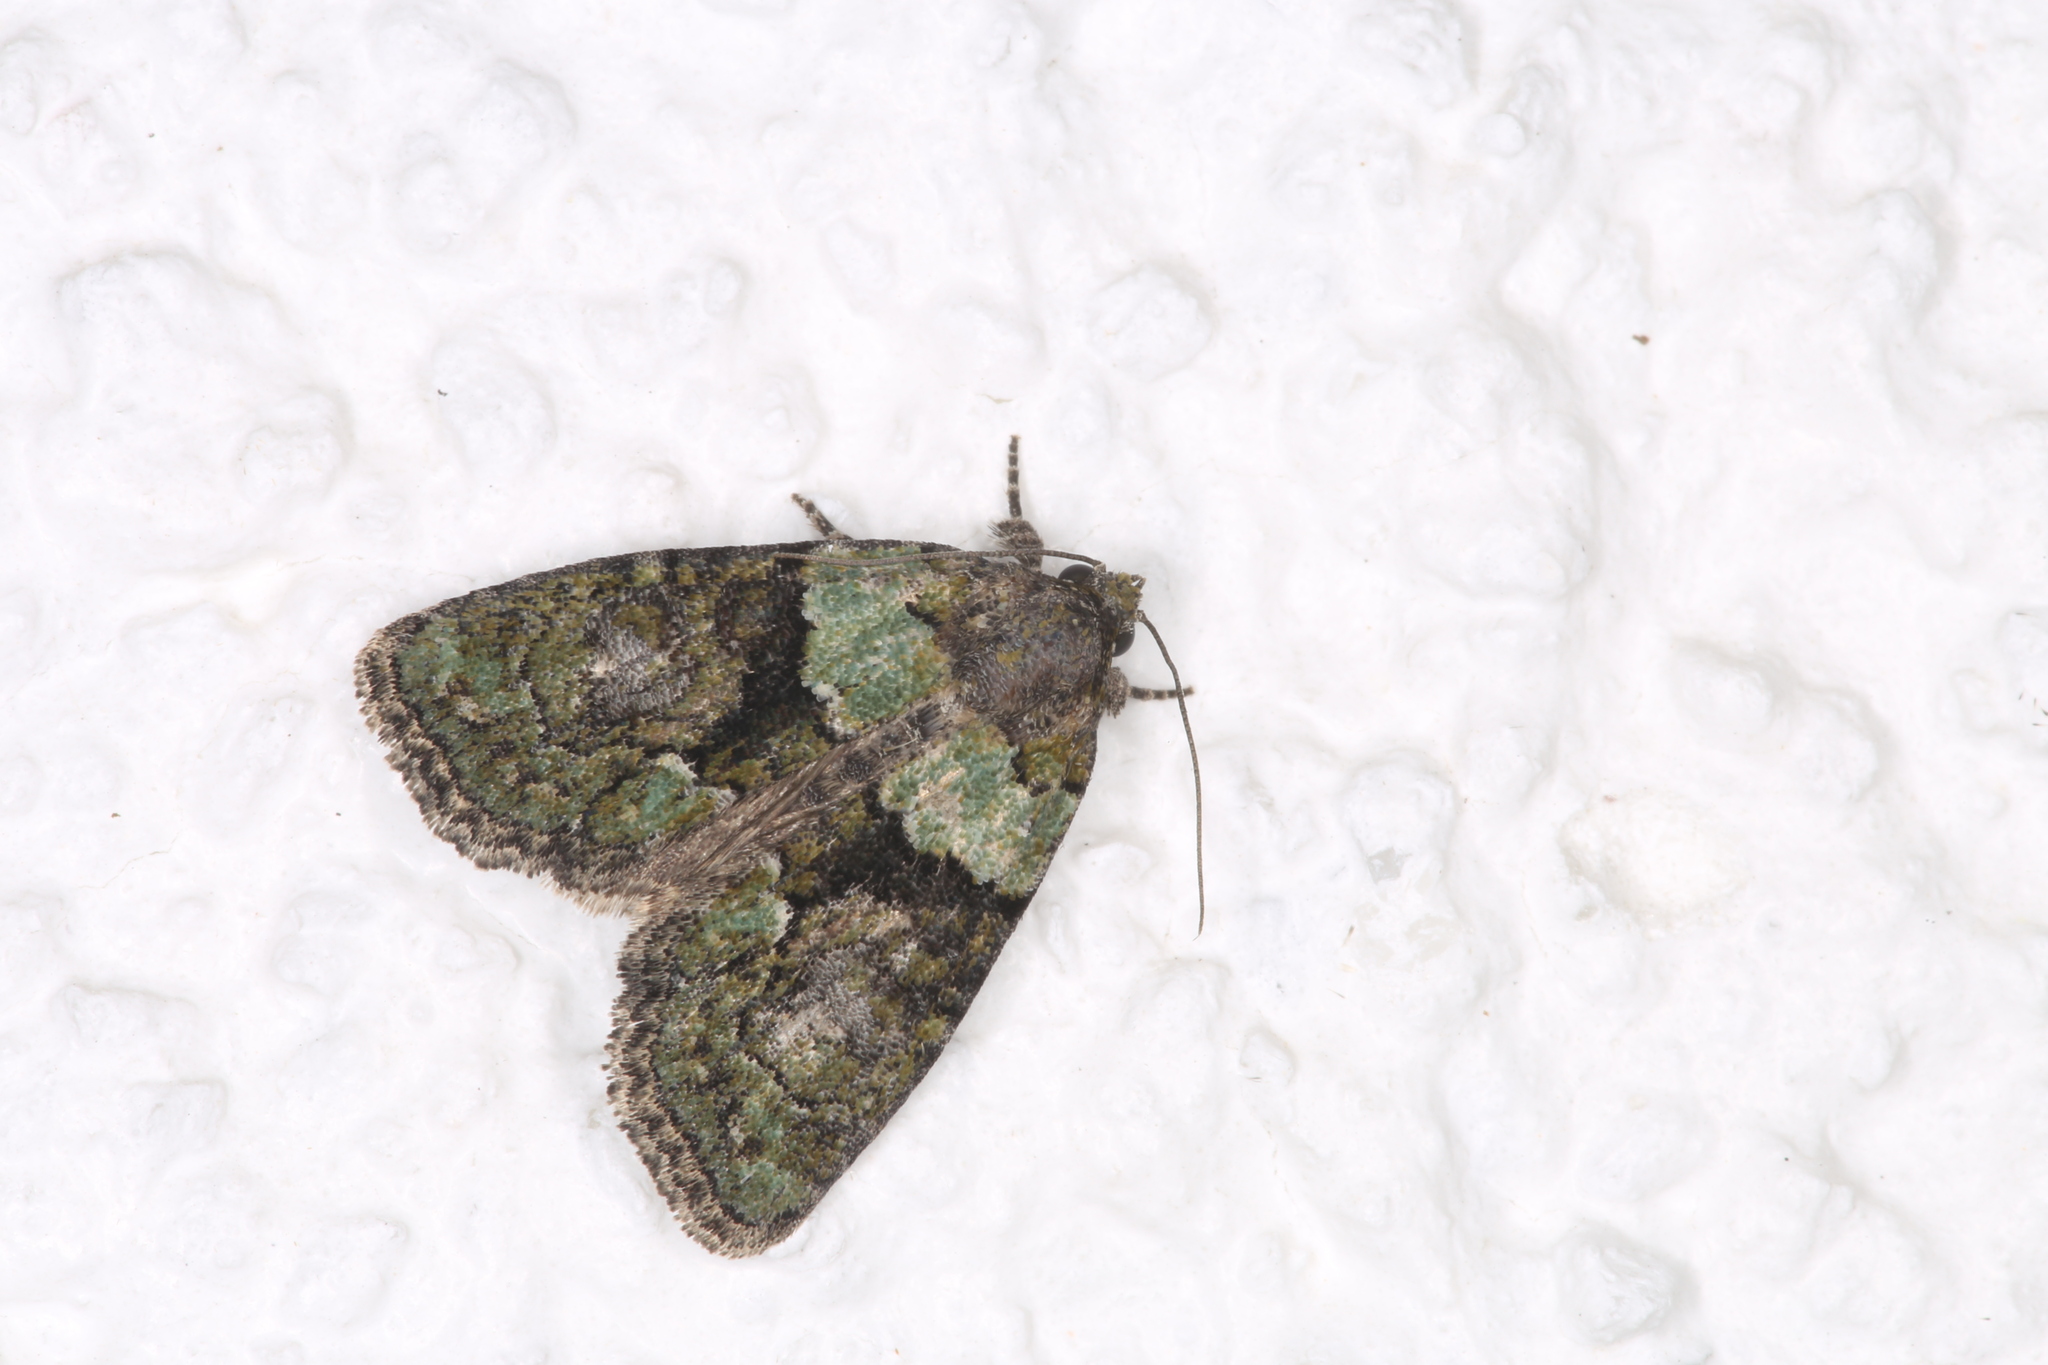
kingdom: Animalia
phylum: Arthropoda
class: Insecta
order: Lepidoptera
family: Noctuidae
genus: Cryphia
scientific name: Cryphia algae
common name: Tree-lichen beauty
